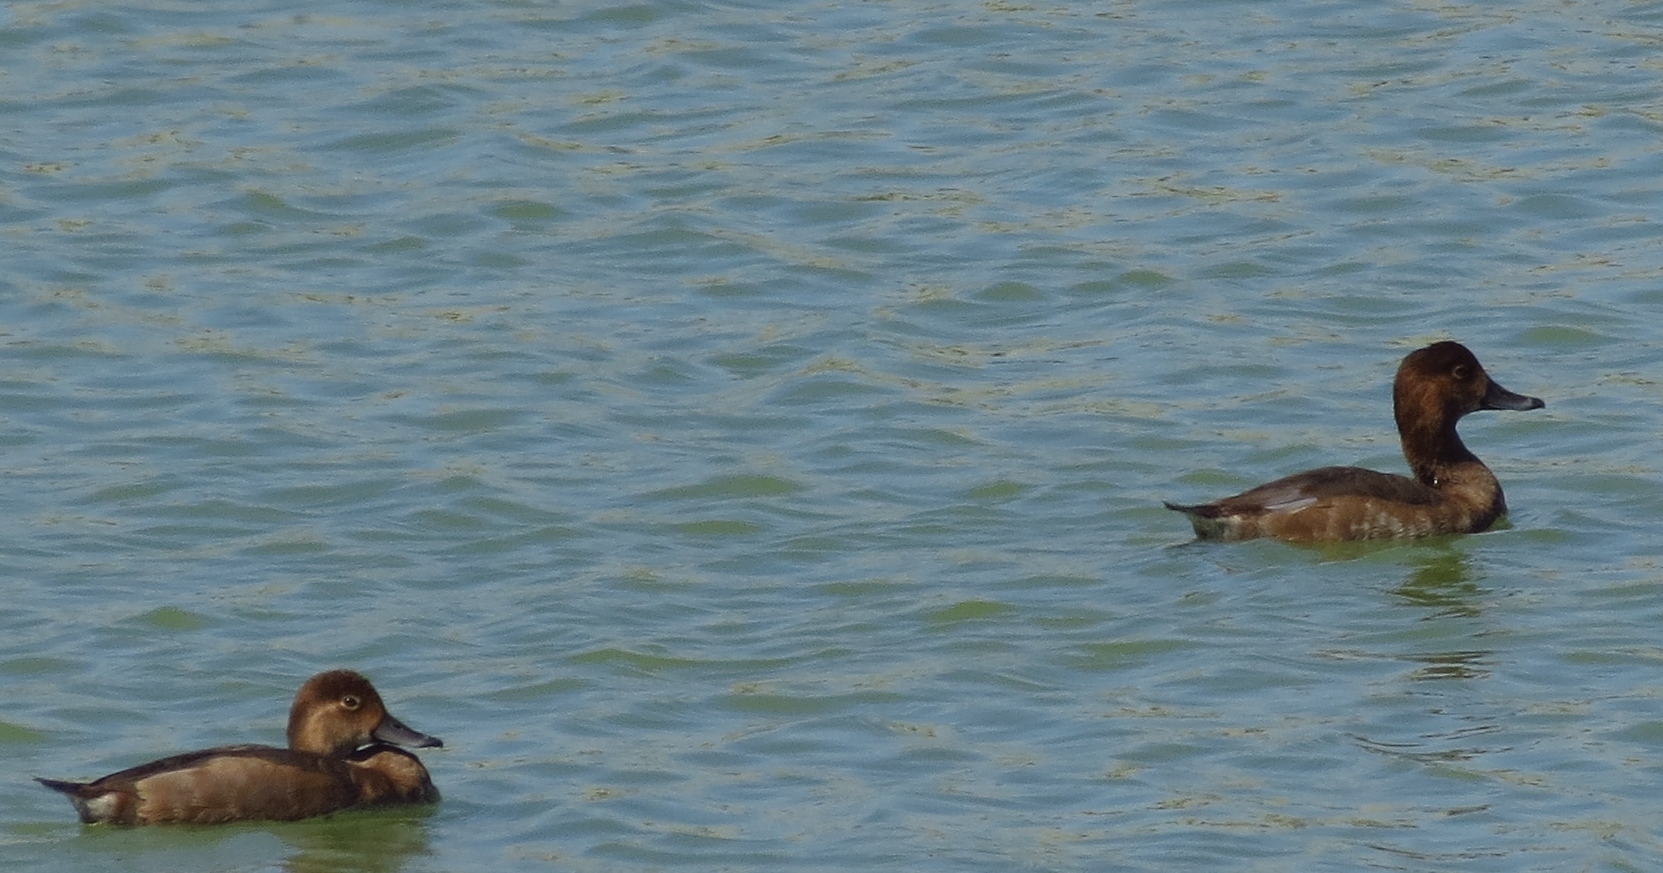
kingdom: Animalia
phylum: Chordata
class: Aves
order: Anseriformes
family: Anatidae
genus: Aythya
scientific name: Aythya collaris
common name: Ring-necked duck
